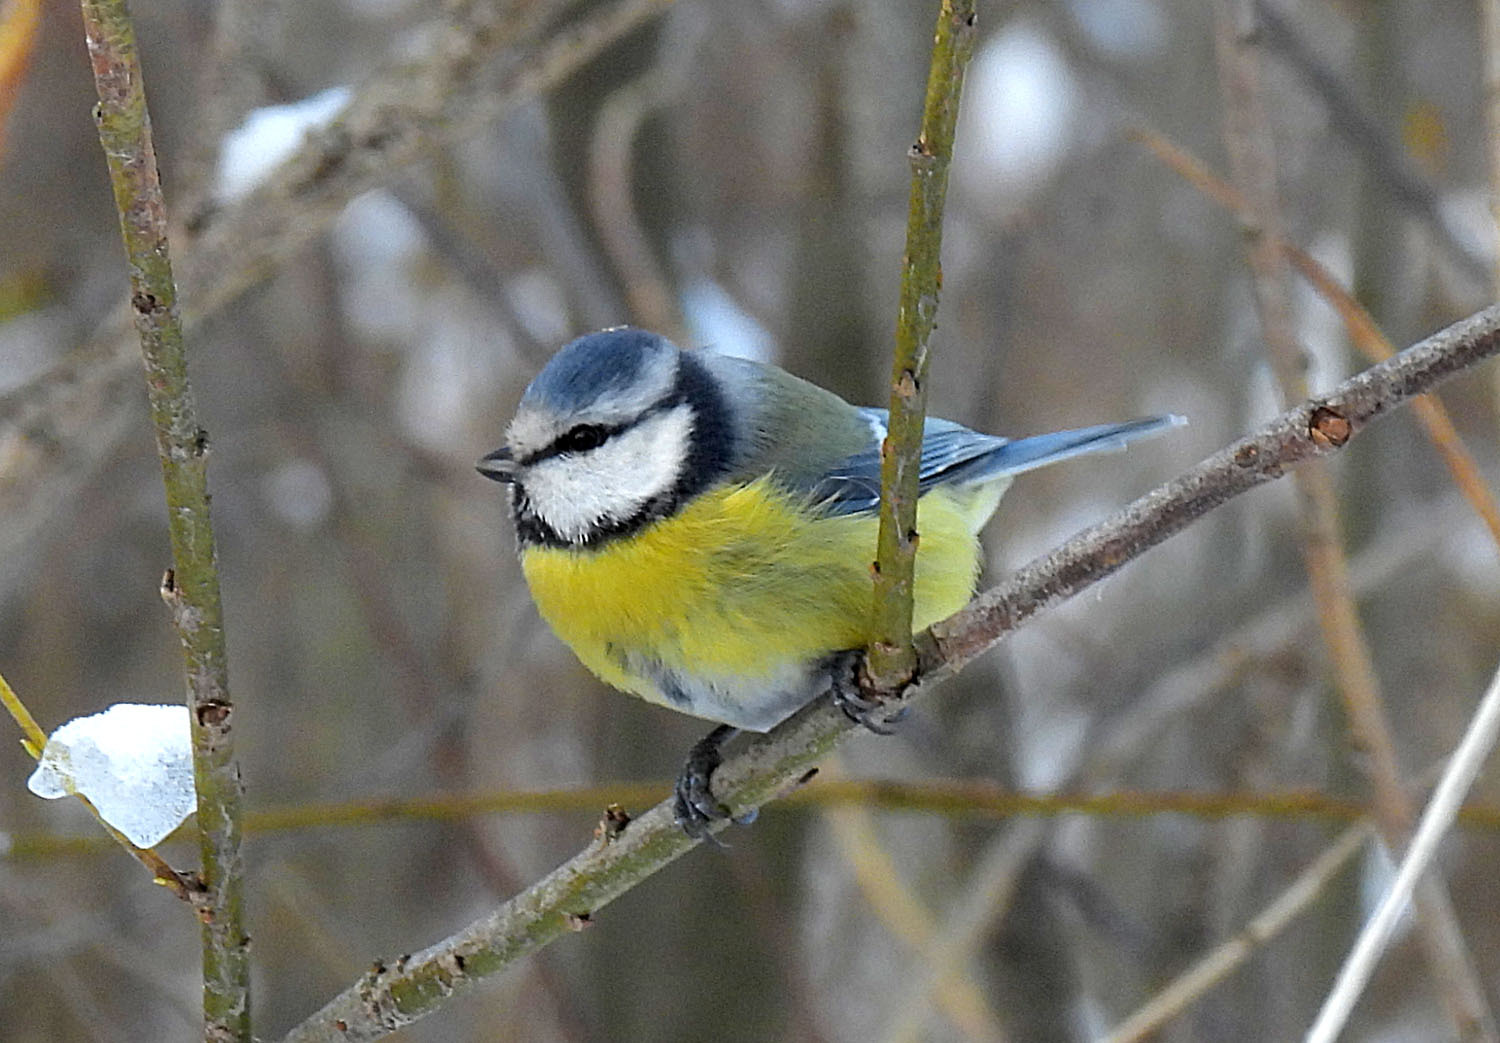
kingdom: Animalia
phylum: Chordata
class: Aves
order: Passeriformes
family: Paridae
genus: Cyanistes
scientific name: Cyanistes caeruleus
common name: Eurasian blue tit
